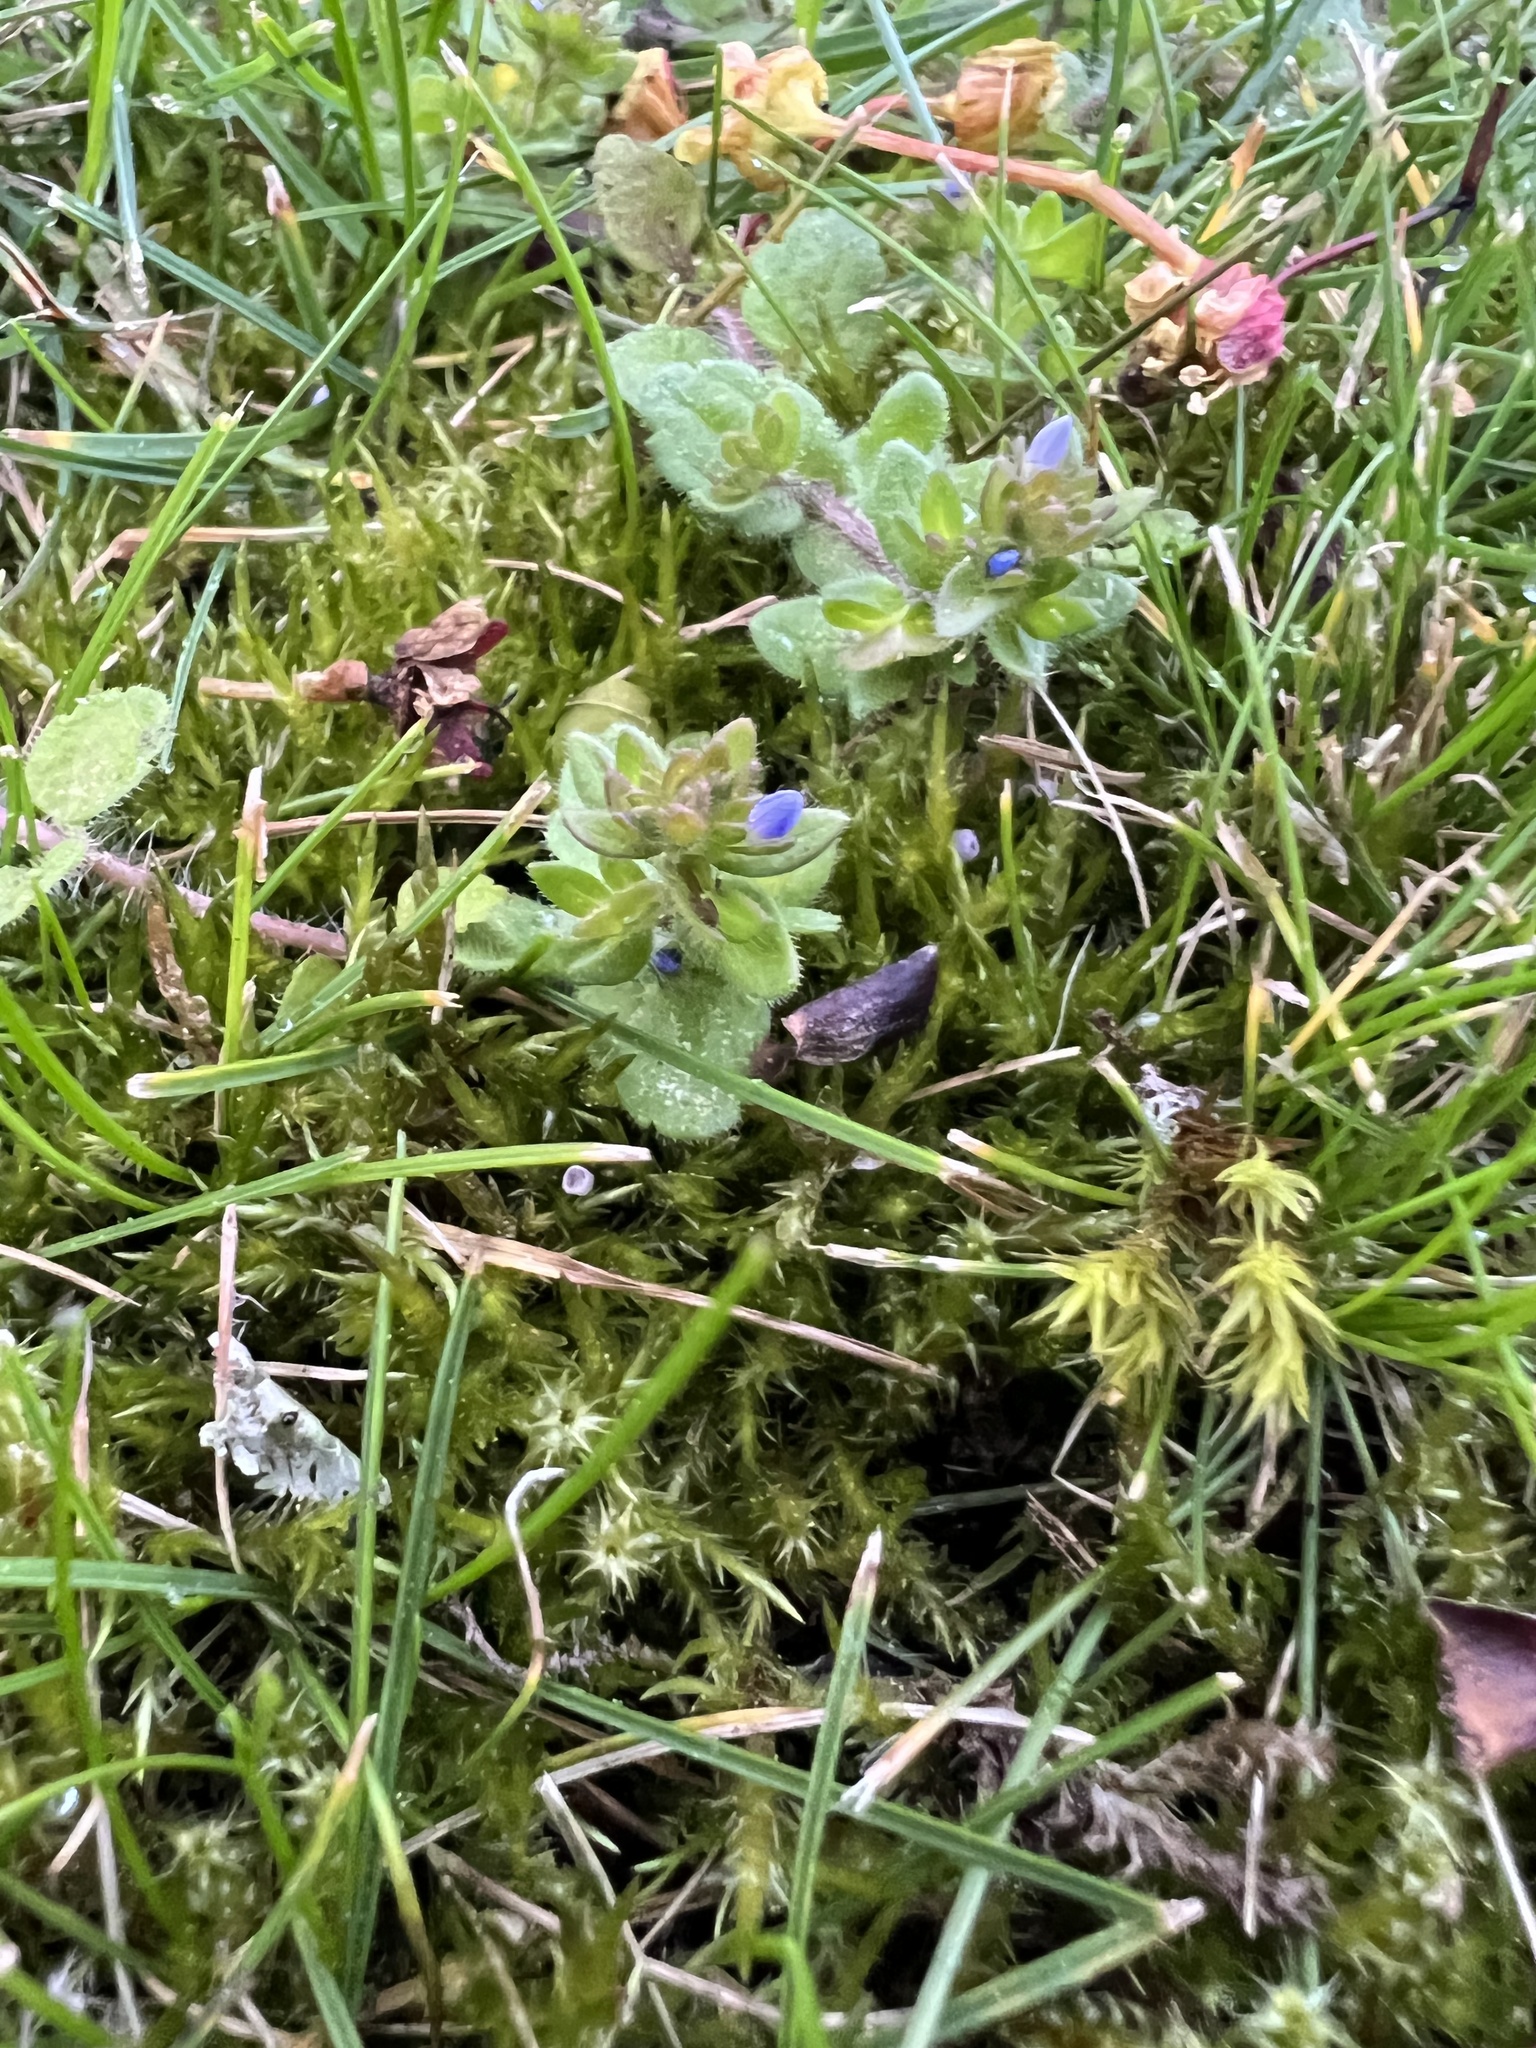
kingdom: Plantae
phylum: Tracheophyta
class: Magnoliopsida
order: Lamiales
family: Plantaginaceae
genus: Veronica
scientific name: Veronica arvensis
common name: Corn speedwell
